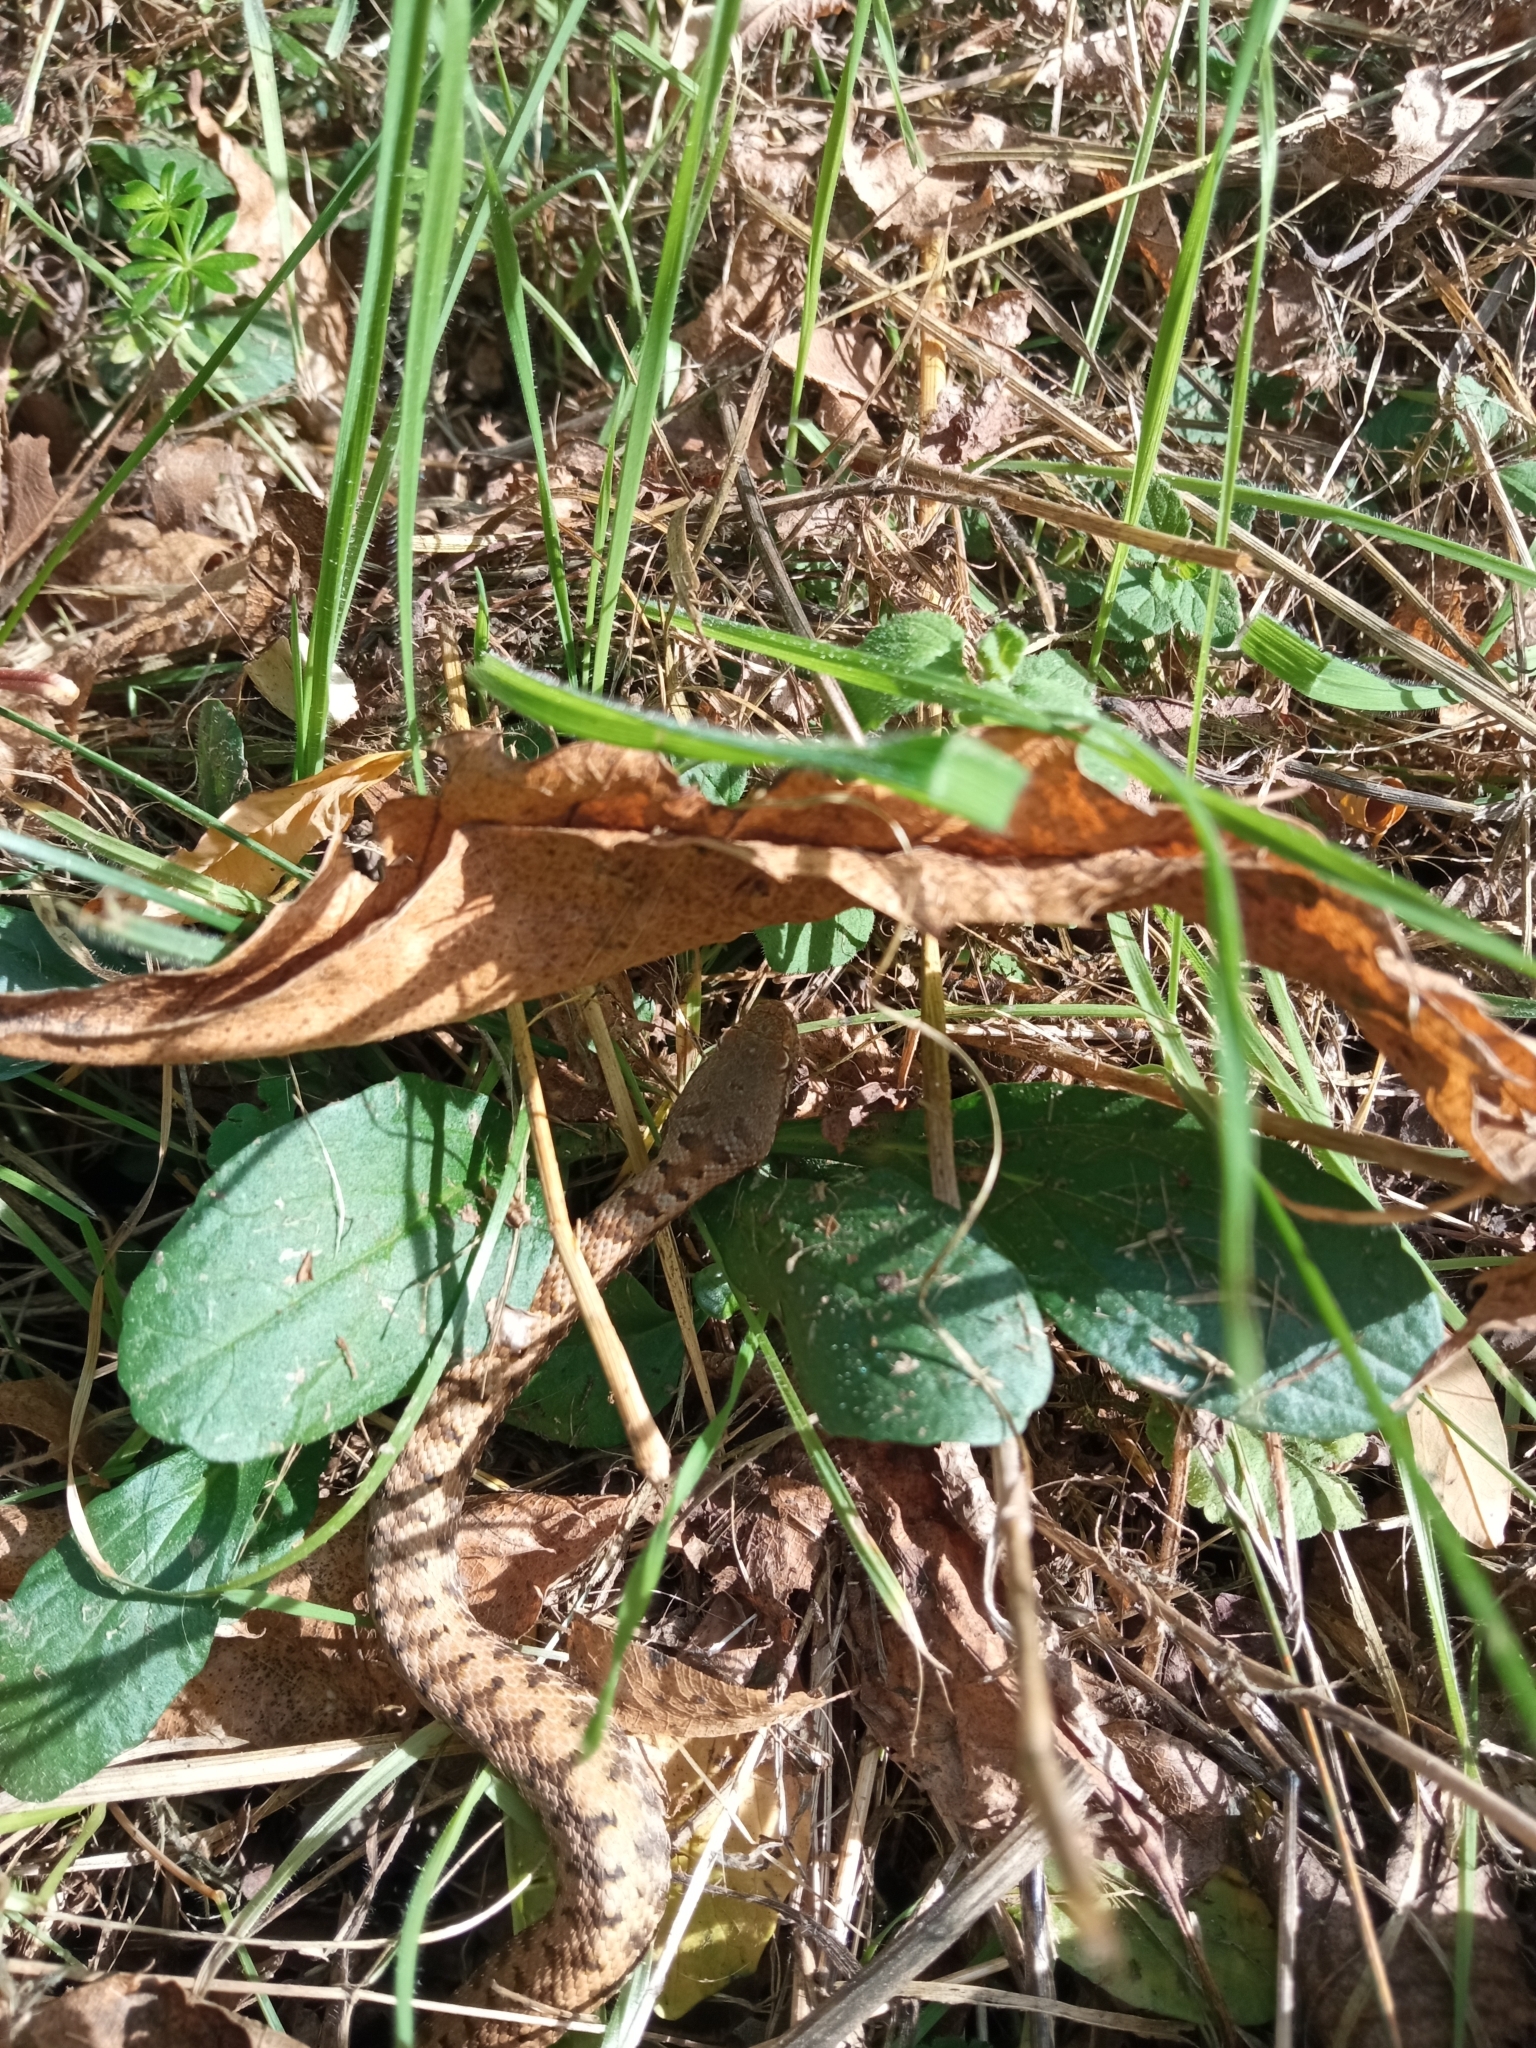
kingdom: Animalia
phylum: Chordata
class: Squamata
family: Viperidae
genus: Vipera
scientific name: Vipera aspis
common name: Asp viper
